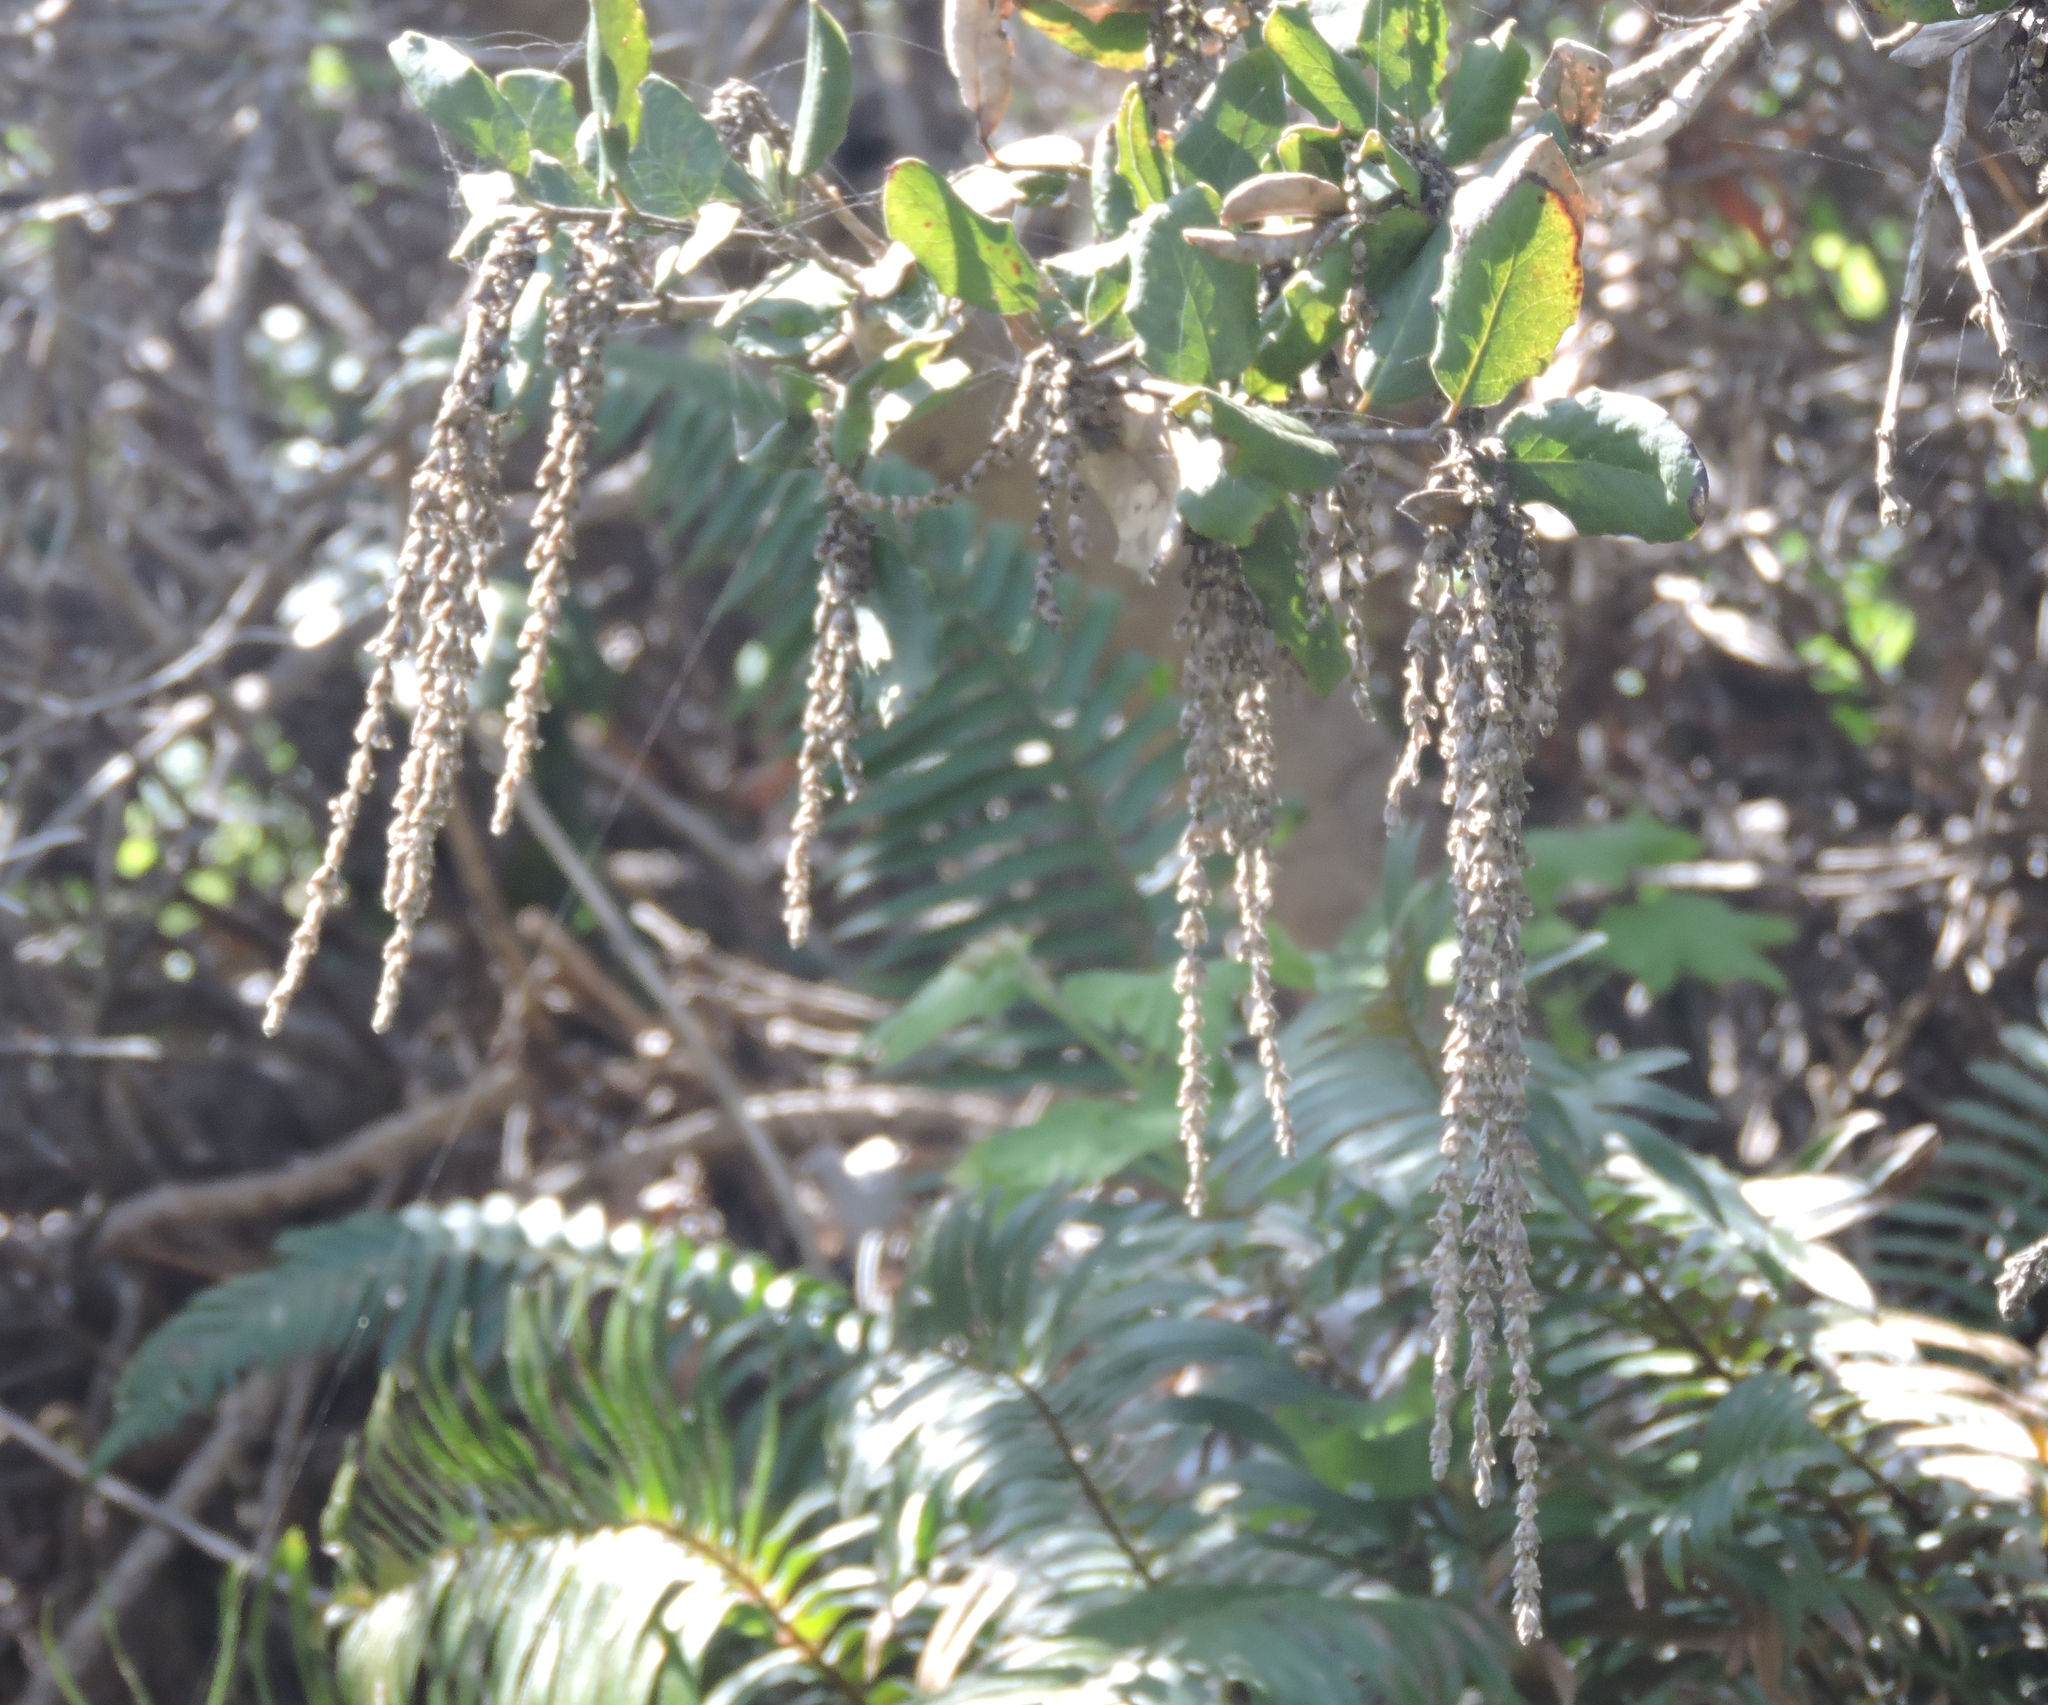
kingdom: Plantae
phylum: Tracheophyta
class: Magnoliopsida
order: Garryales
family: Garryaceae
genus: Garrya
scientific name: Garrya elliptica
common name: Silk-tassel
